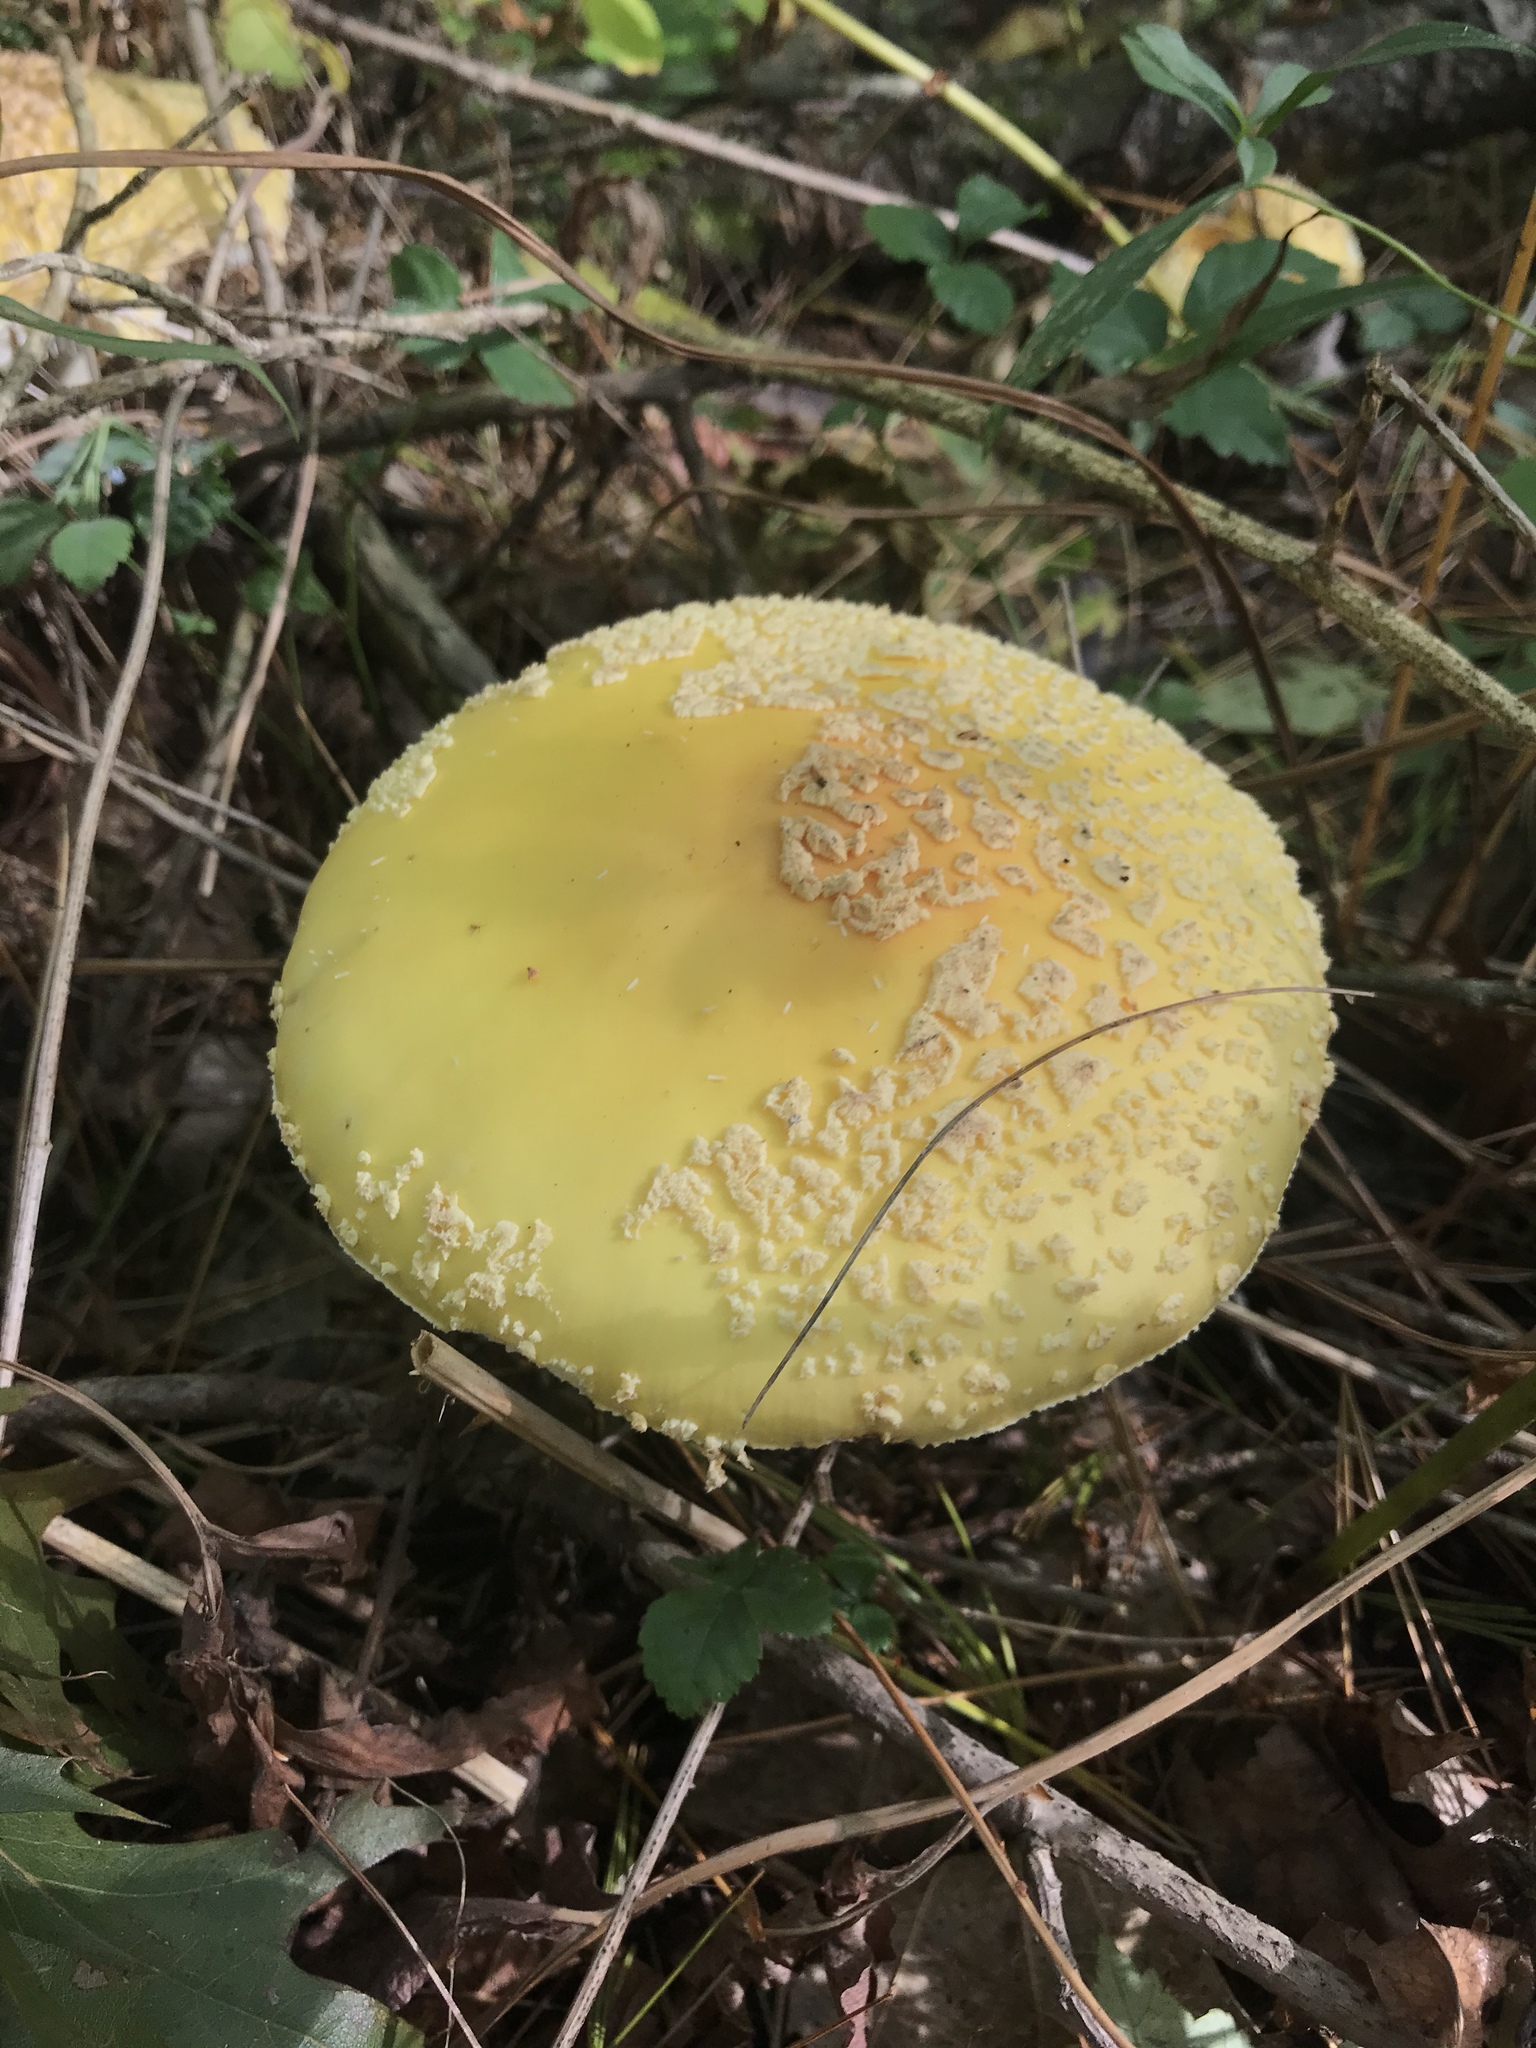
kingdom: Fungi
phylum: Basidiomycota
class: Agaricomycetes
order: Agaricales
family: Amanitaceae
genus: Amanita
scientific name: Amanita muscaria
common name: Fly agaric
